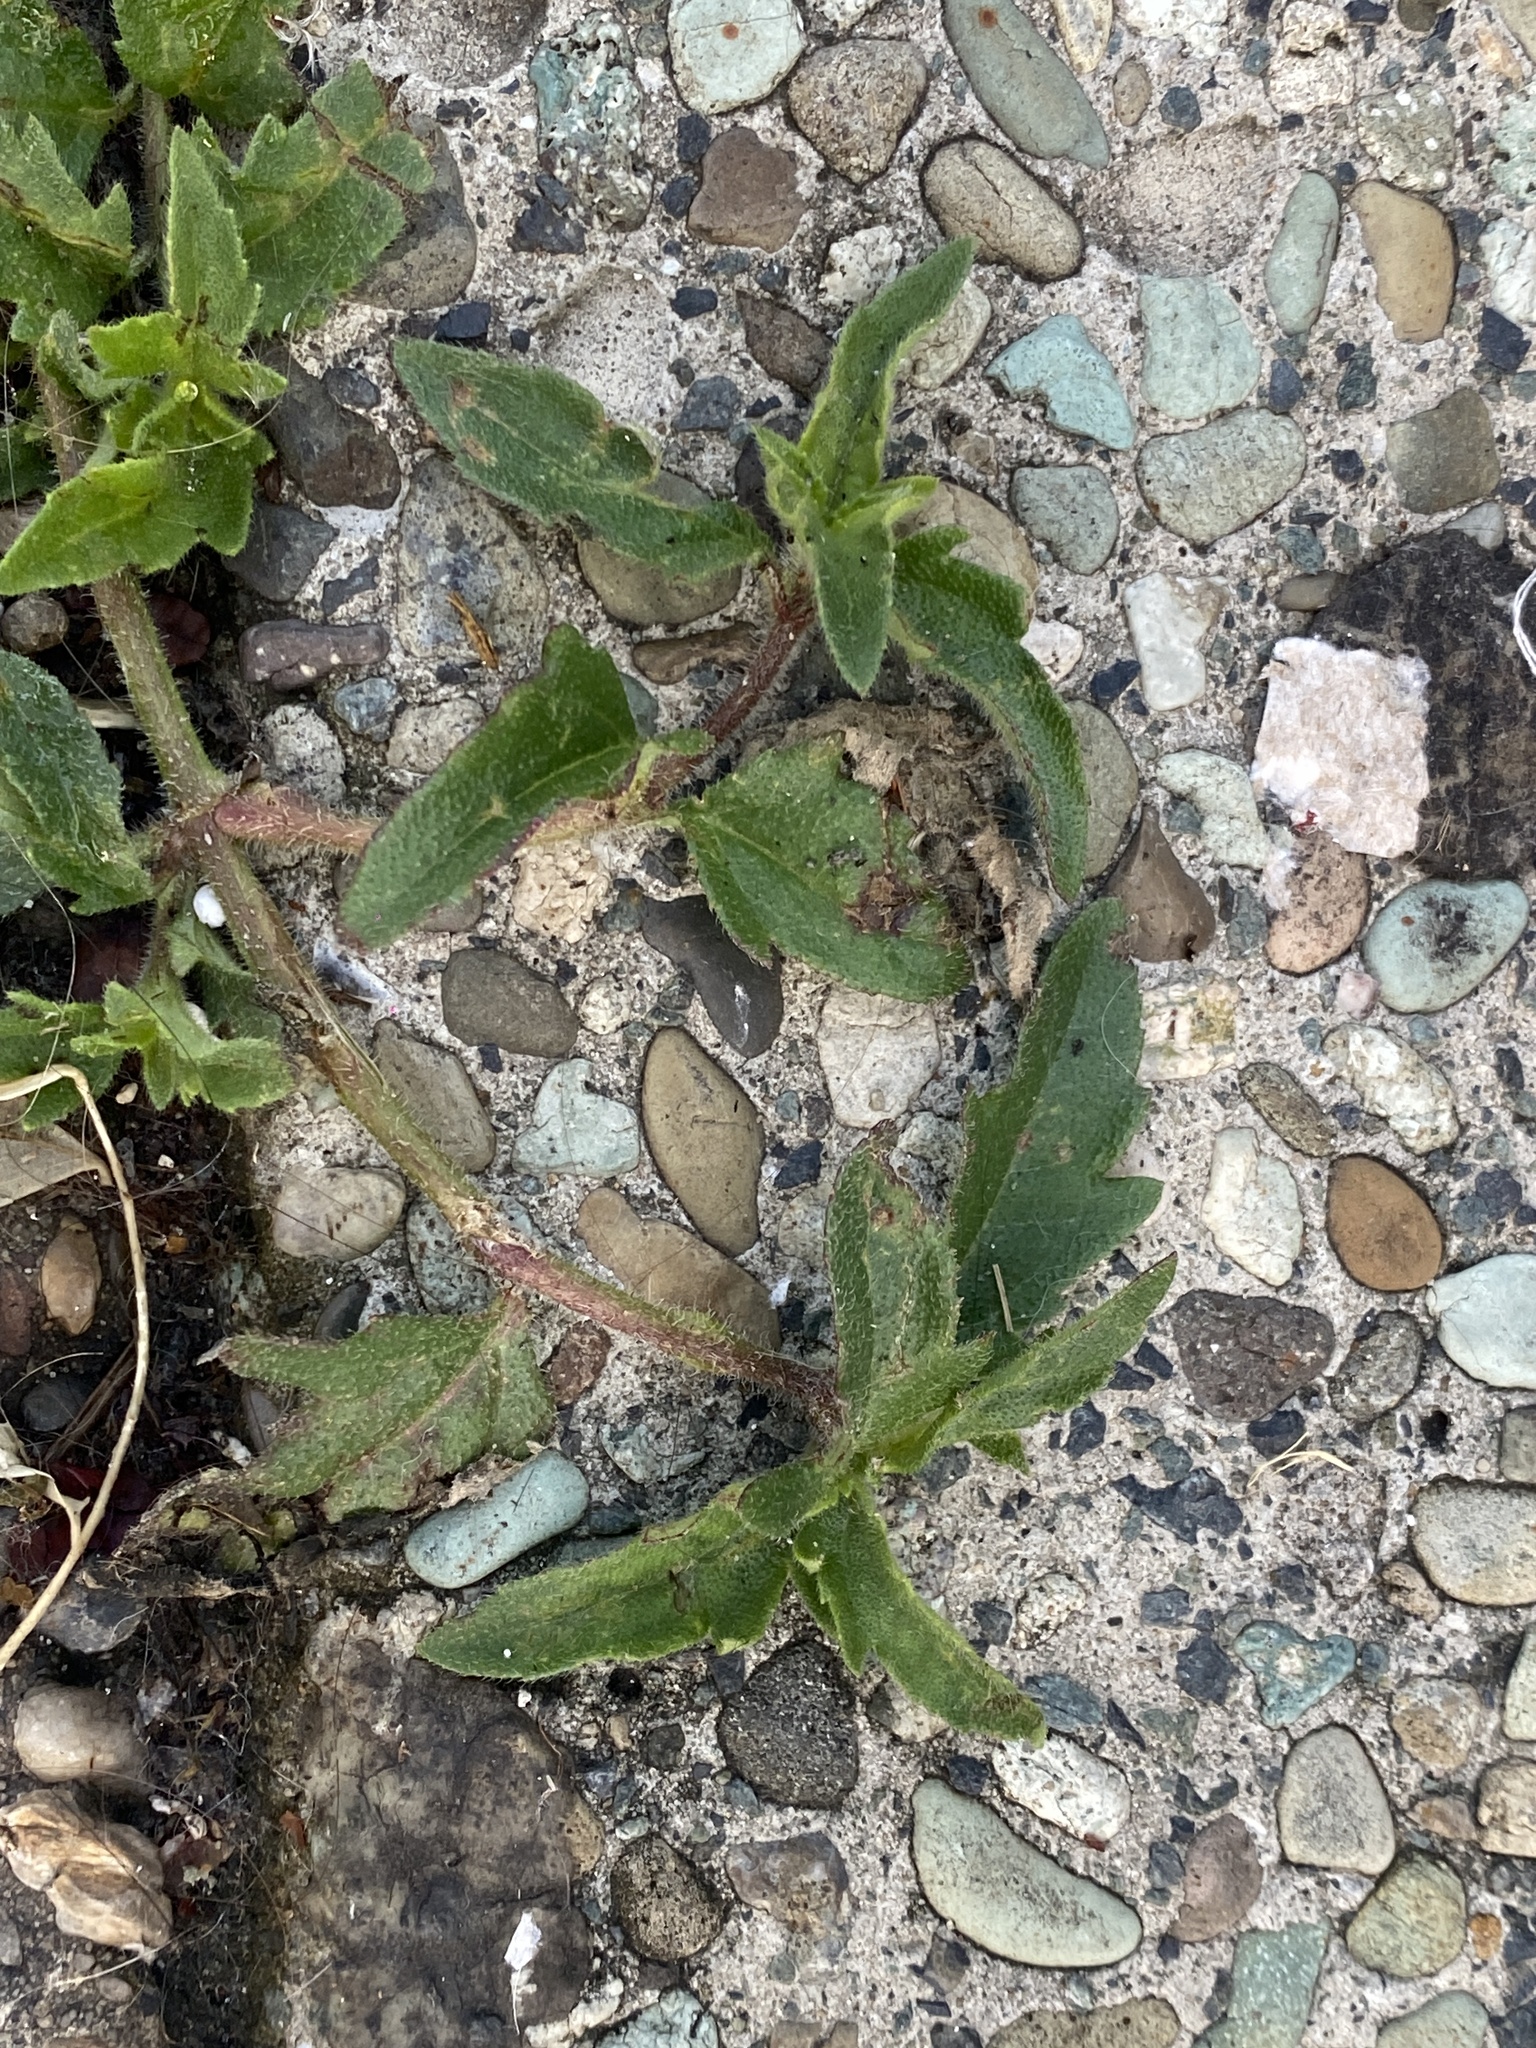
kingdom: Plantae
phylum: Tracheophyta
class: Magnoliopsida
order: Asterales
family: Asteraceae
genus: Tridax
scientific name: Tridax procumbens
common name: Coatbuttons
